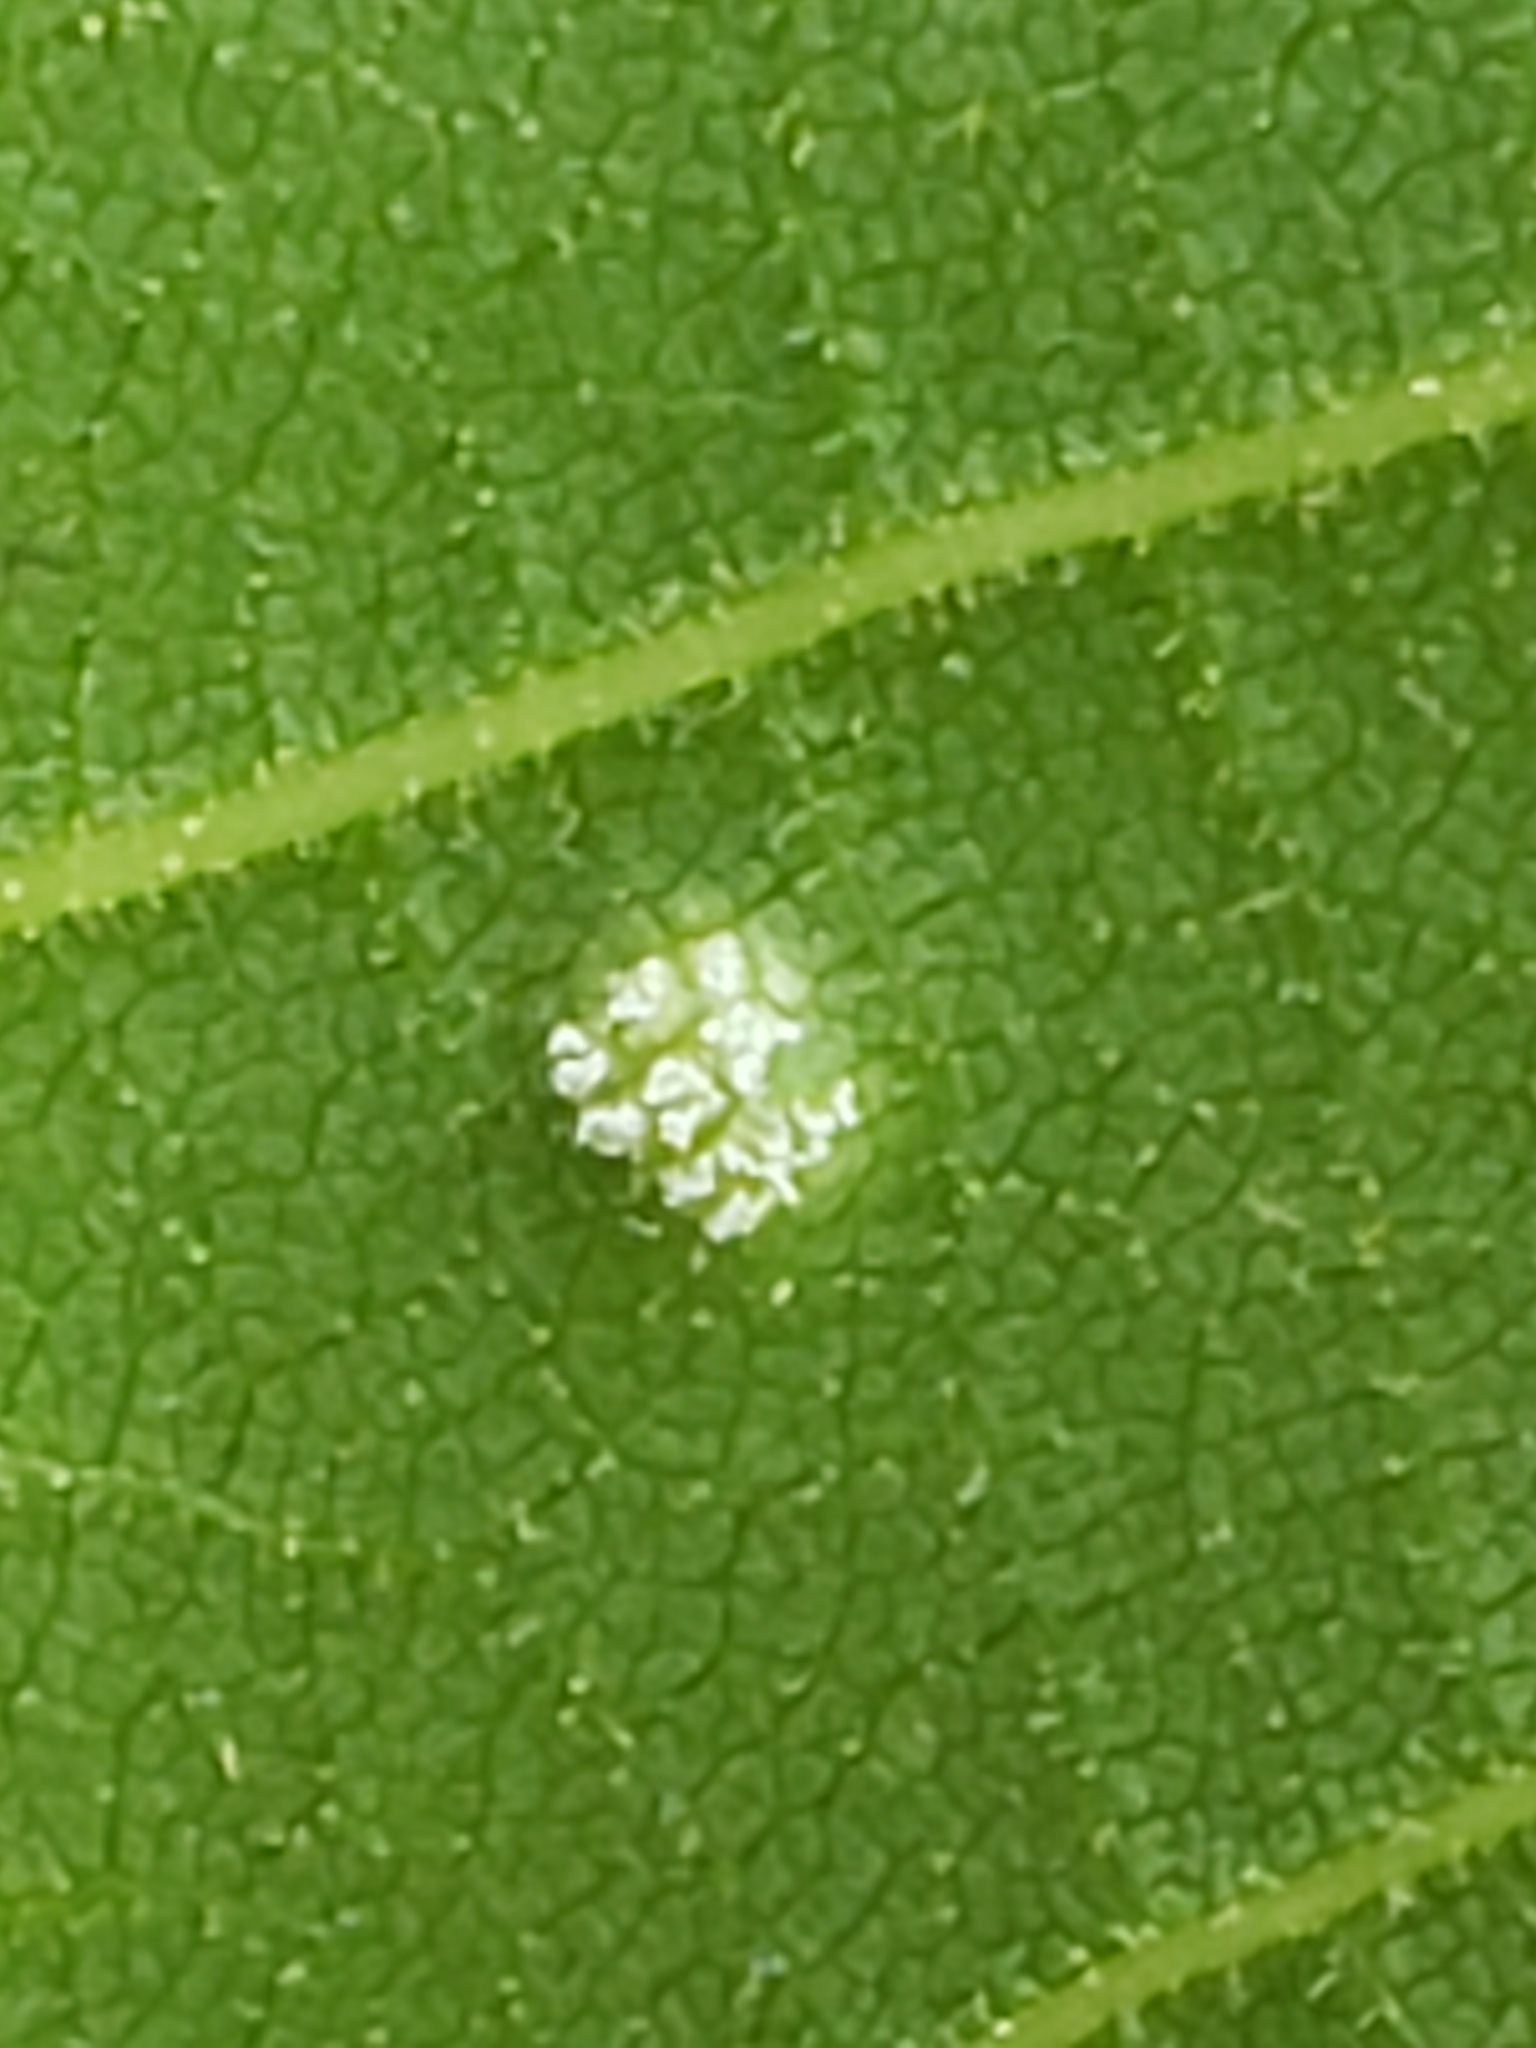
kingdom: Fungi
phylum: Basidiomycota
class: Exobasidiomycetes
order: Microstromatales
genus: Pseudomicrostroma
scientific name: Pseudomicrostroma juglandis
